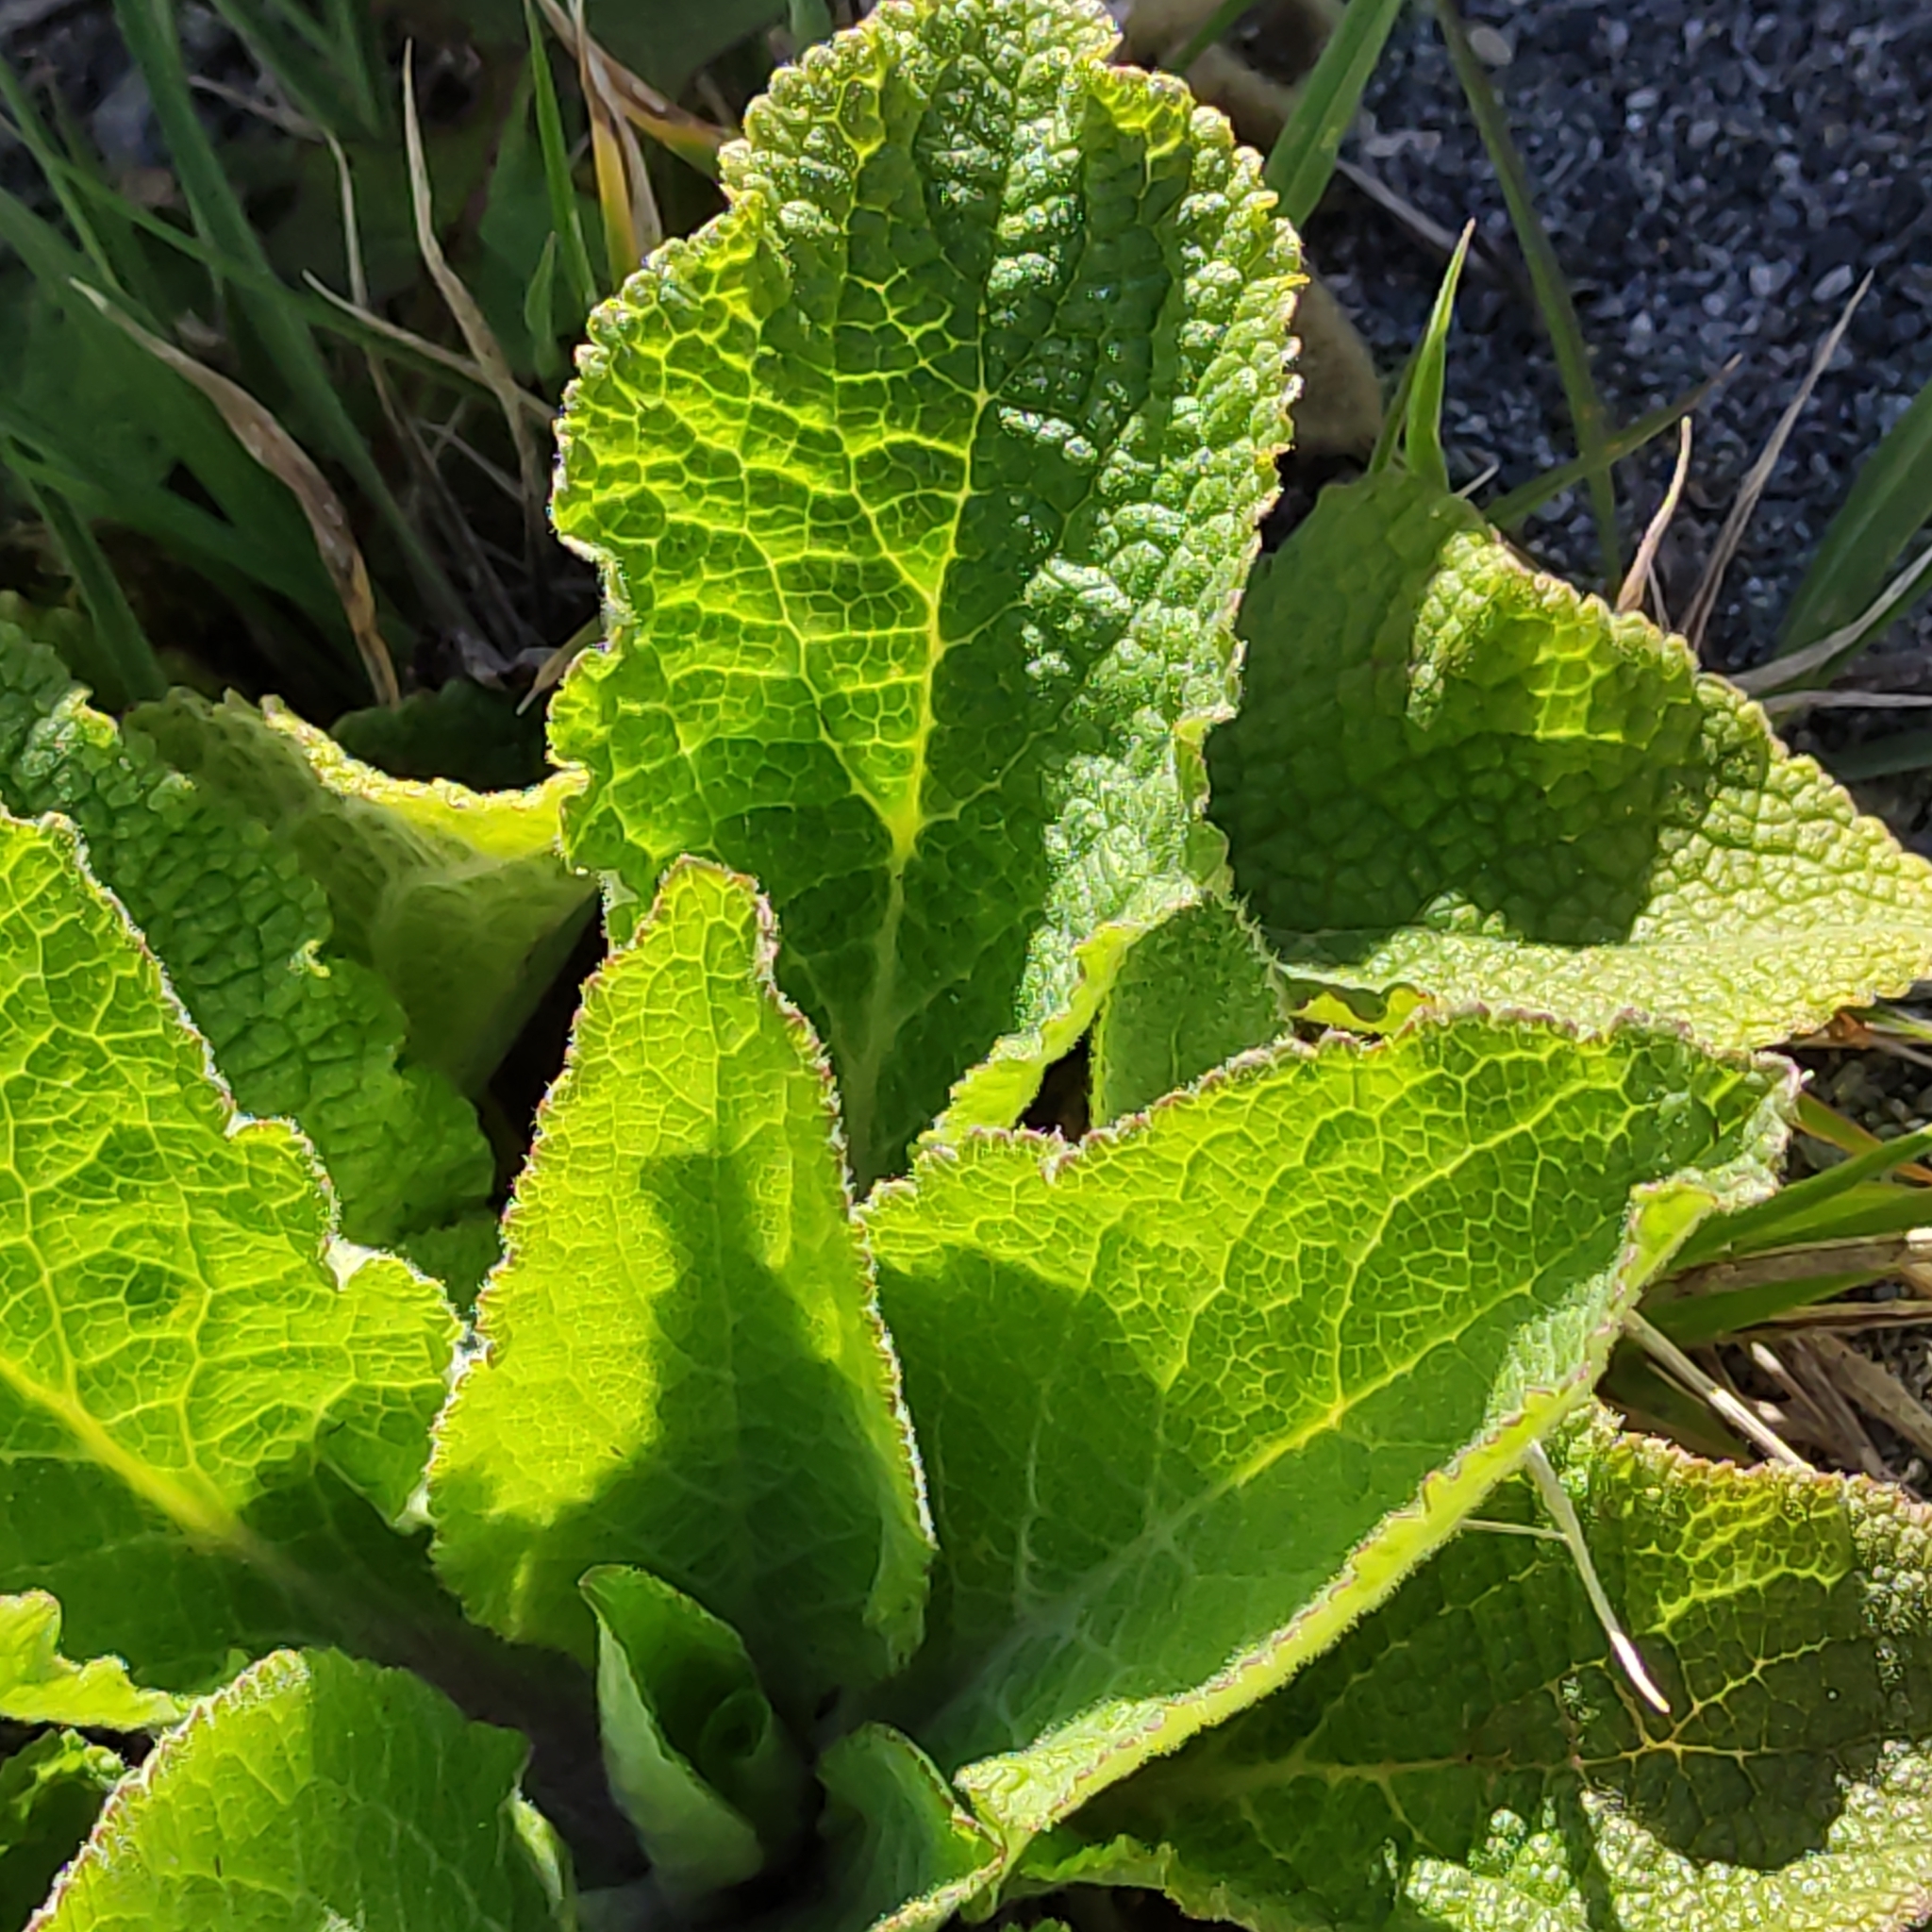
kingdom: Plantae
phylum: Tracheophyta
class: Magnoliopsida
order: Lamiales
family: Scrophulariaceae
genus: Verbascum
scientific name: Verbascum virgatum
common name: Twiggy mullein
